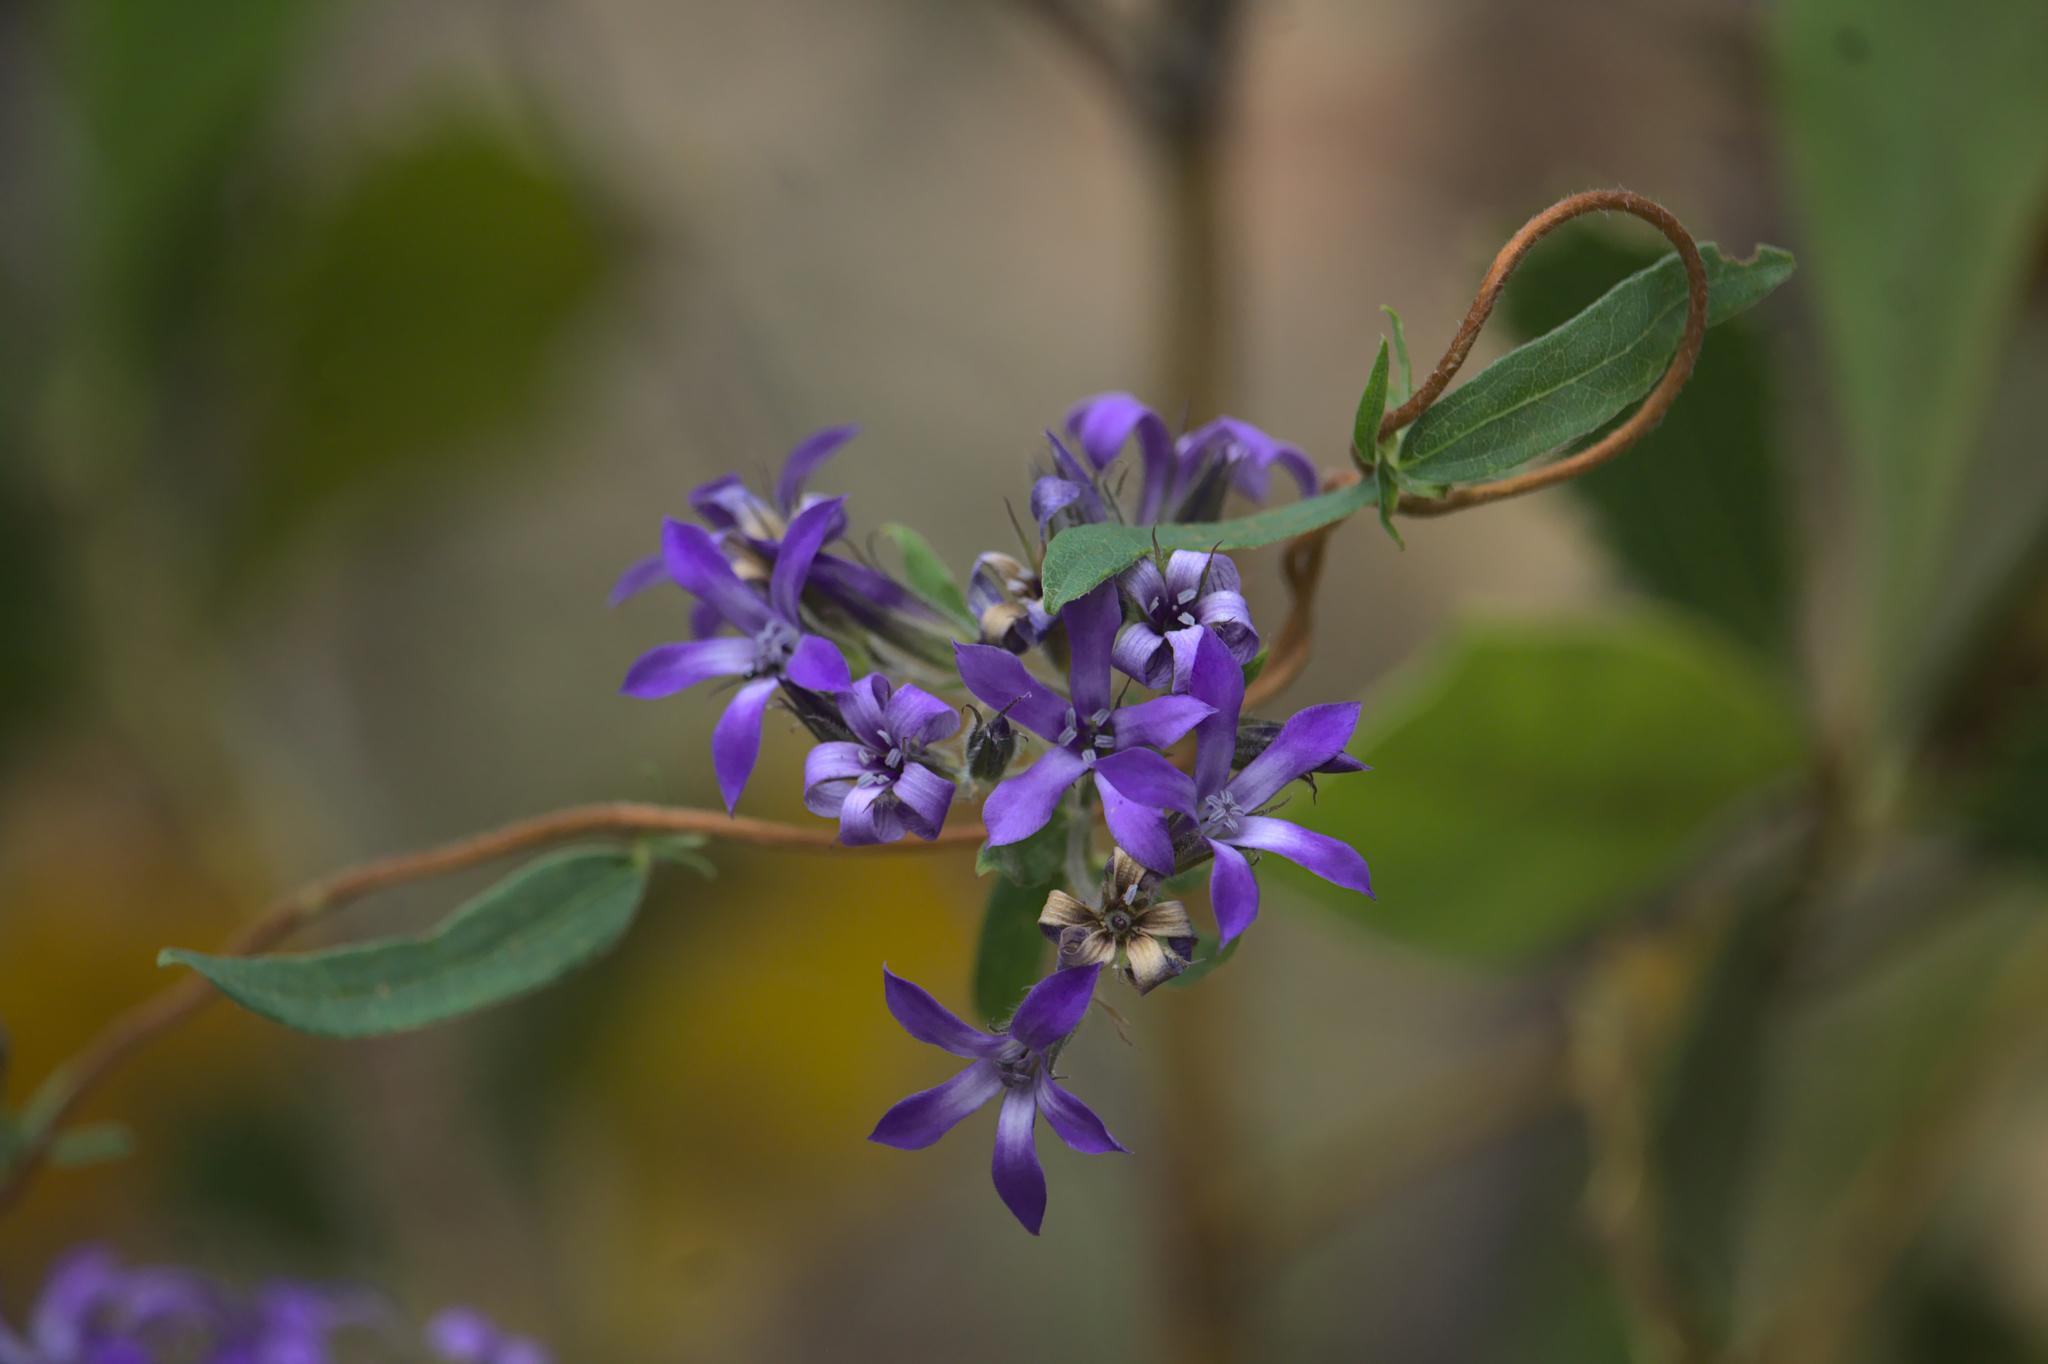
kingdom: Plantae
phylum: Tracheophyta
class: Magnoliopsida
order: Apiales
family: Pittosporaceae
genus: Billardiera
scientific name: Billardiera variifolia
